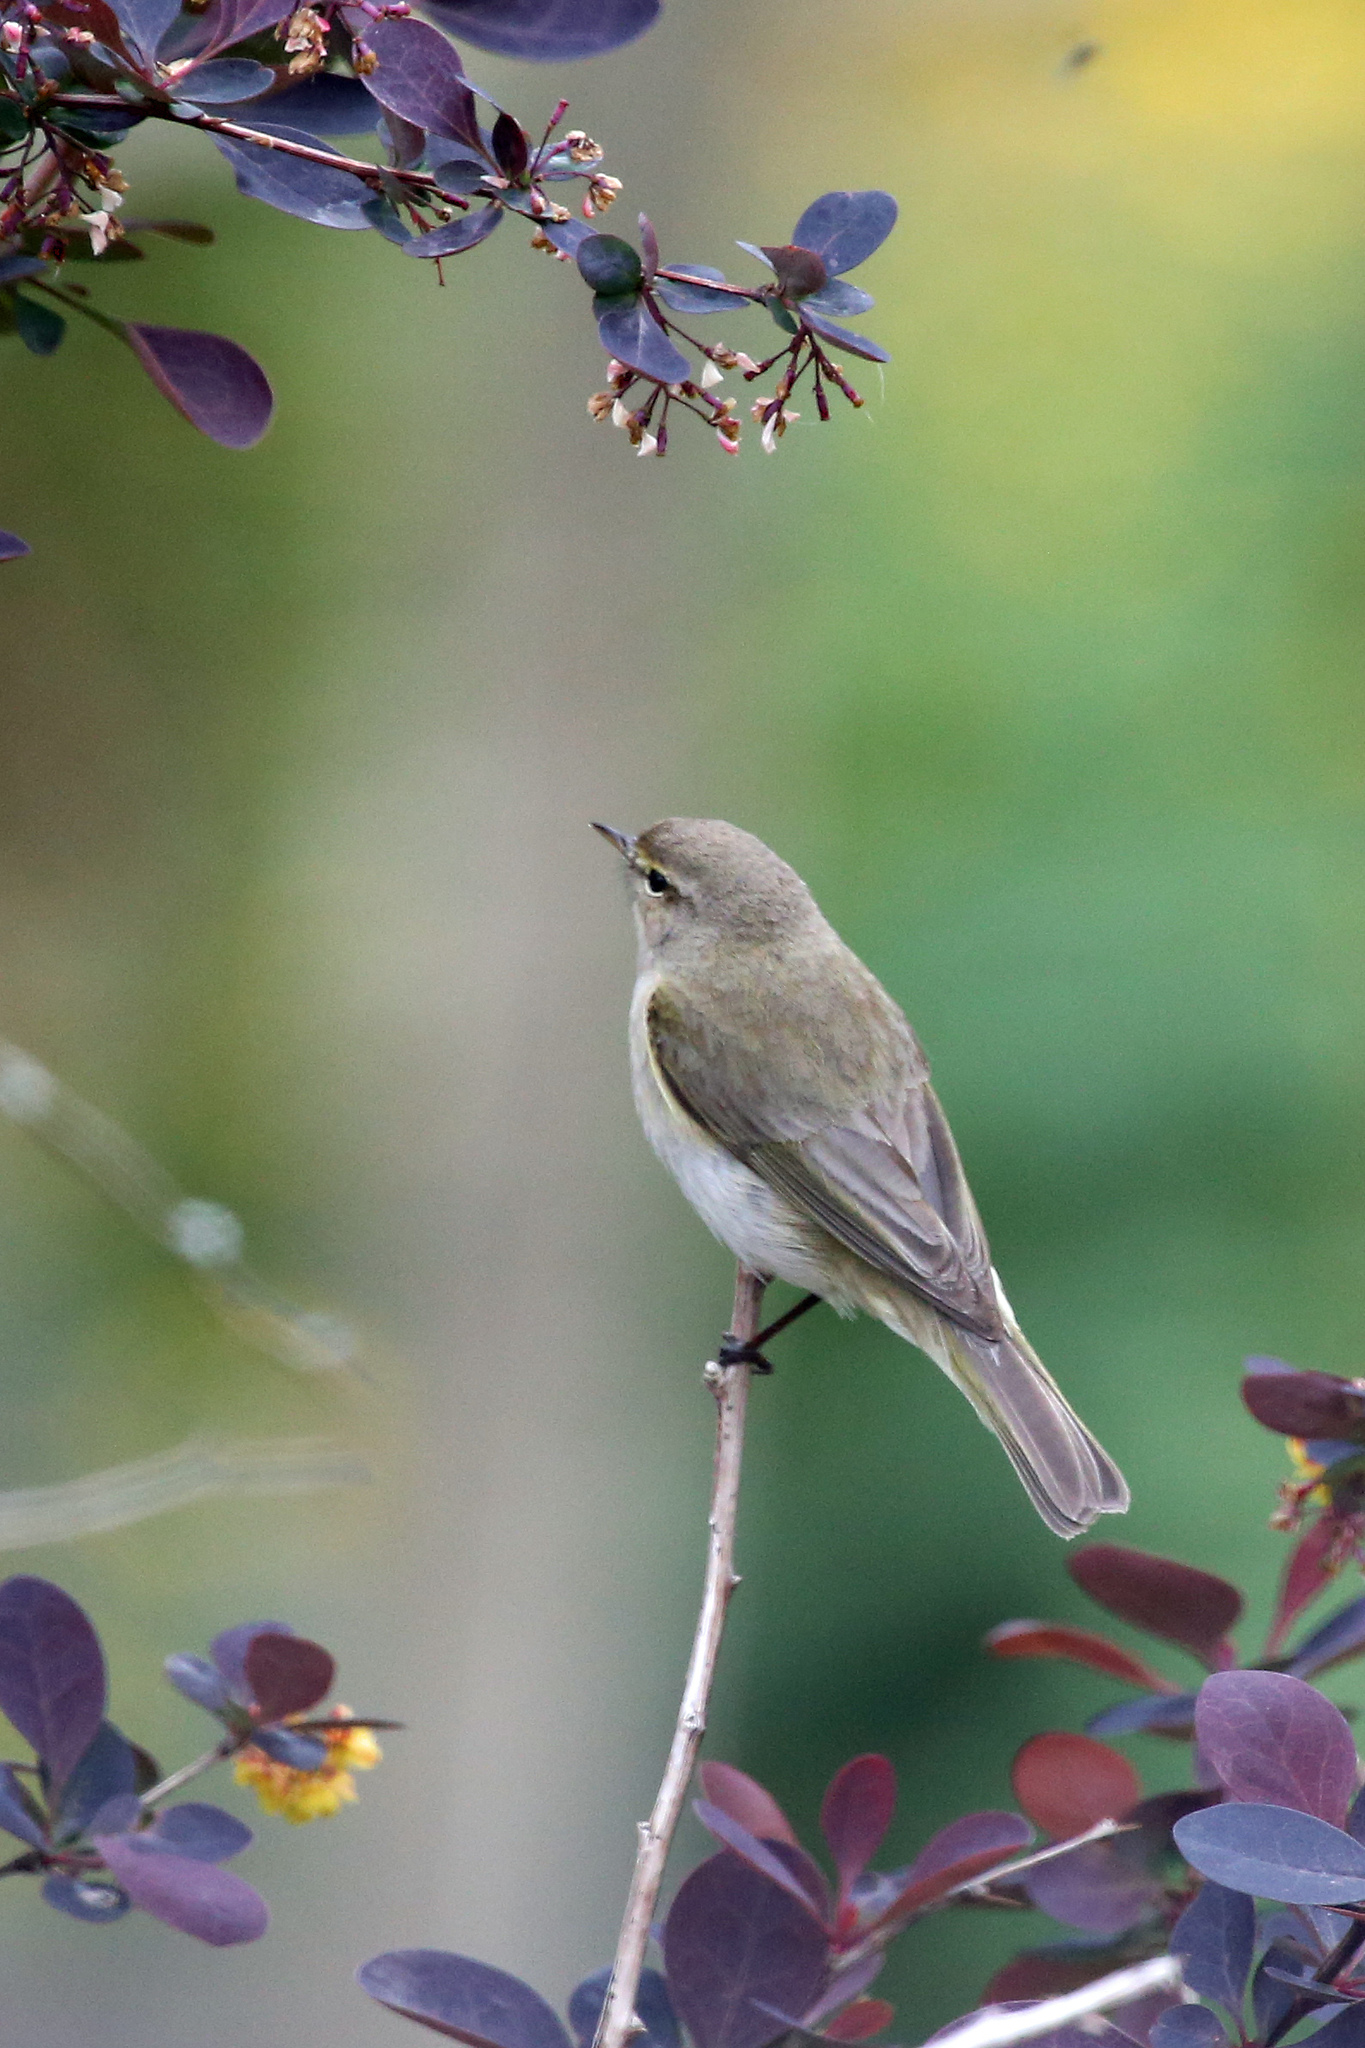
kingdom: Animalia
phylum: Chordata
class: Aves
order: Passeriformes
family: Phylloscopidae
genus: Phylloscopus
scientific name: Phylloscopus collybita
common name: Common chiffchaff
